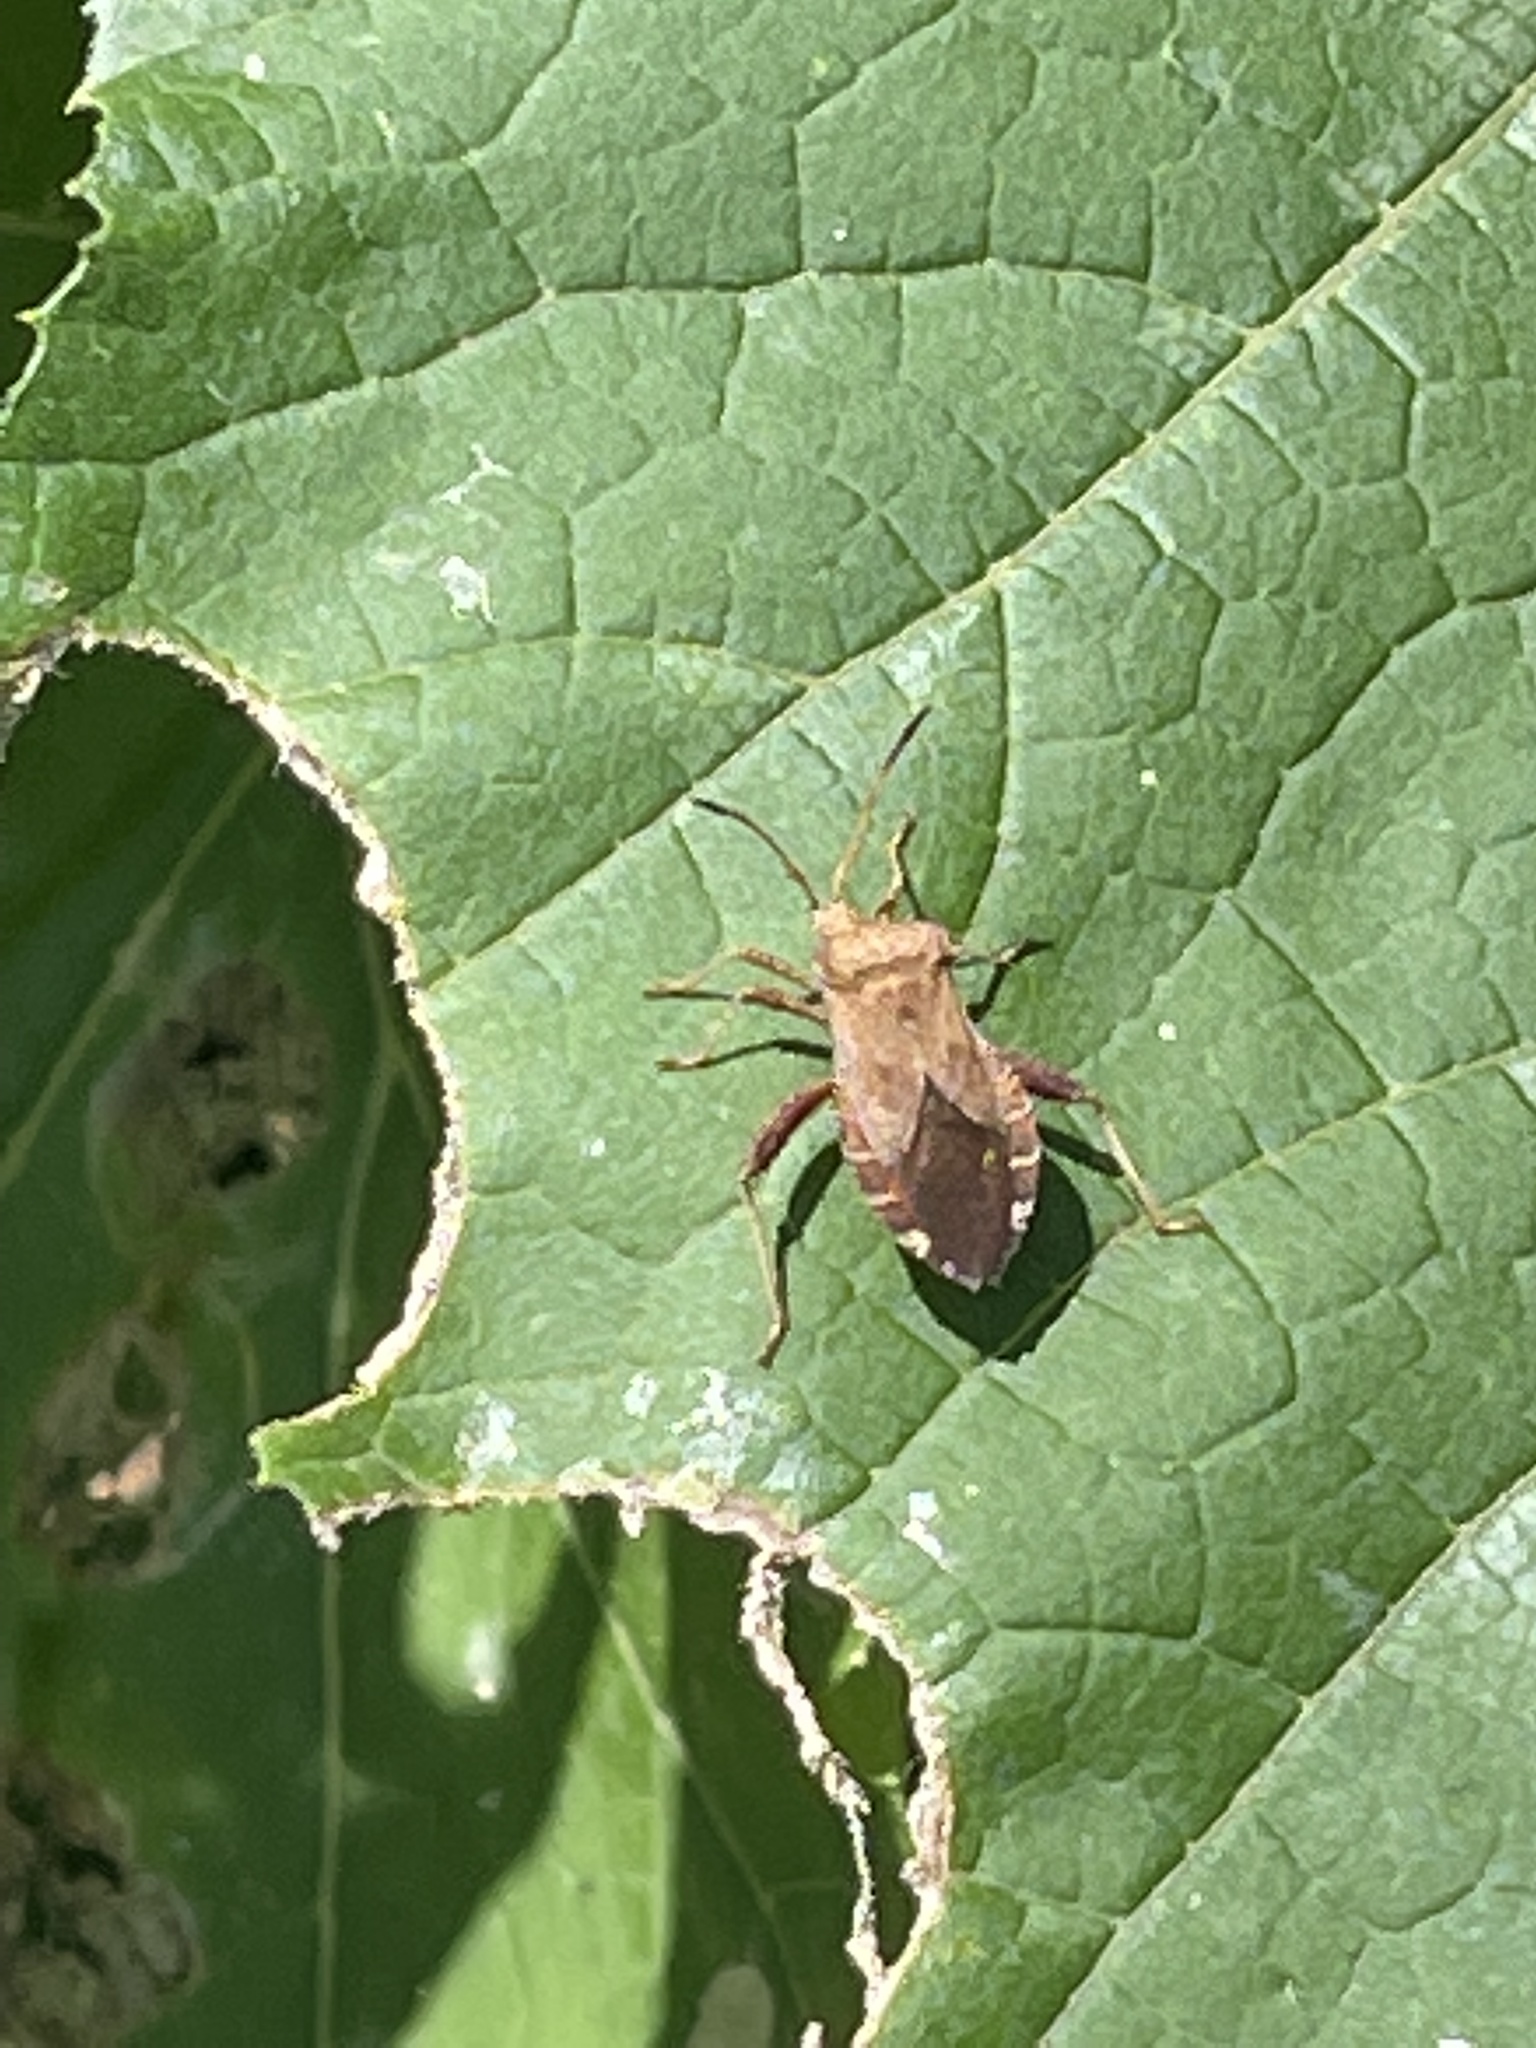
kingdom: Animalia
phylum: Arthropoda
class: Insecta
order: Hemiptera
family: Coreidae
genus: Euthochtha
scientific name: Euthochtha galeator
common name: Helmeted squash bug
